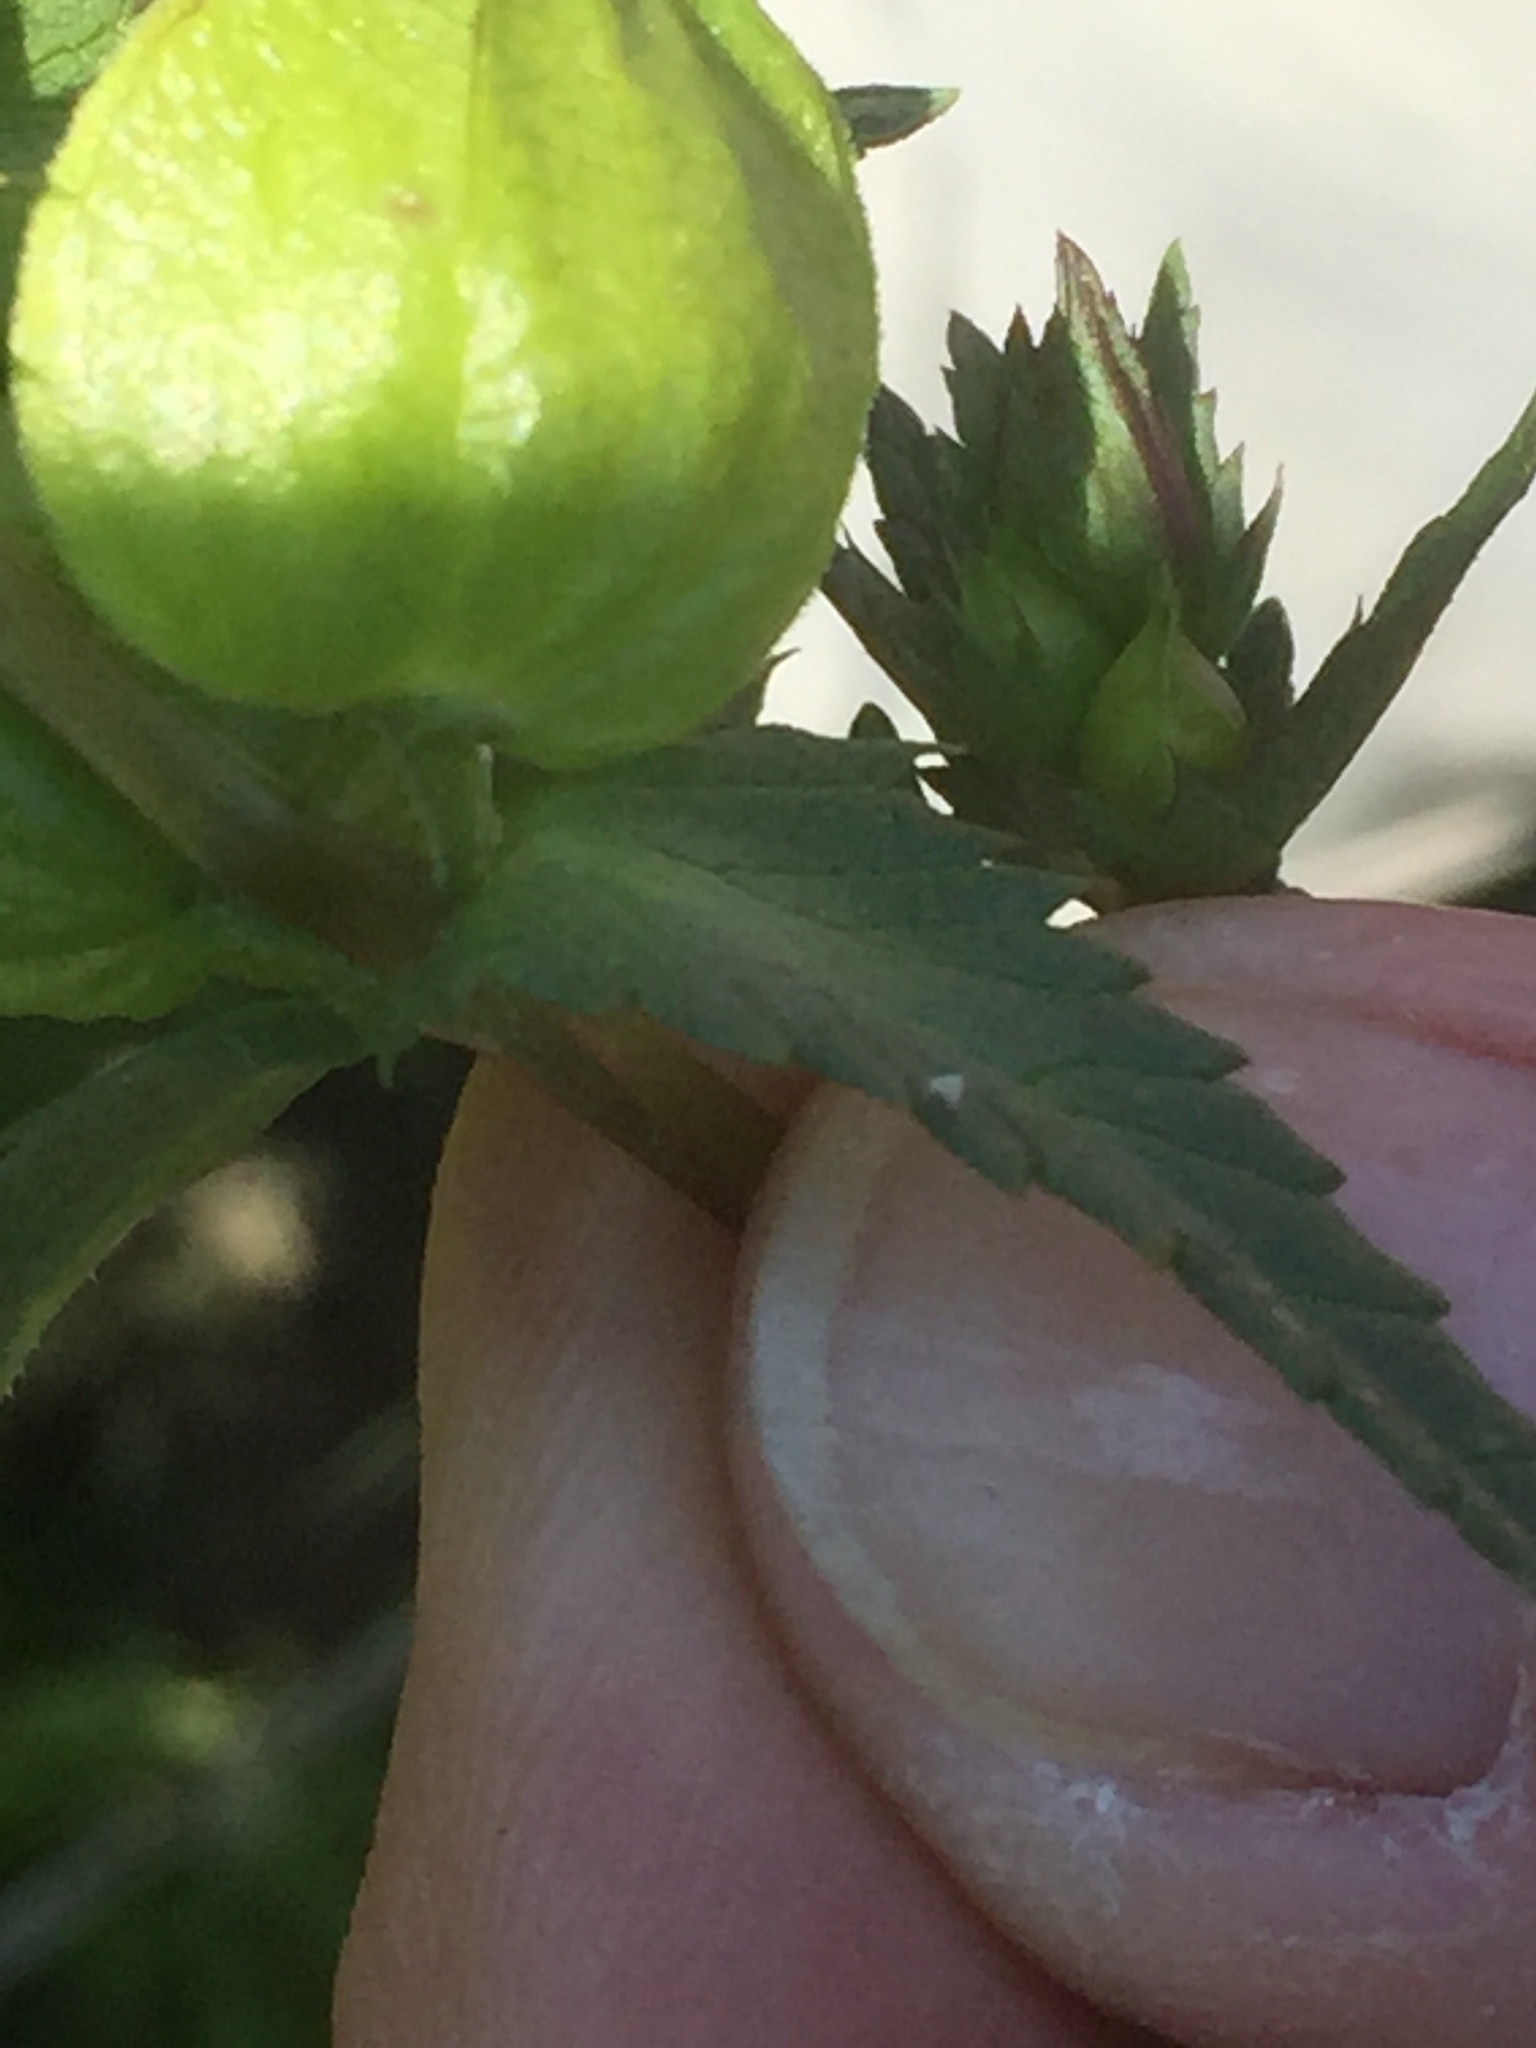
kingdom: Plantae
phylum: Tracheophyta
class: Magnoliopsida
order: Lamiales
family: Orobanchaceae
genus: Rhinanthus
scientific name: Rhinanthus minor
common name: Yellow-rattle
